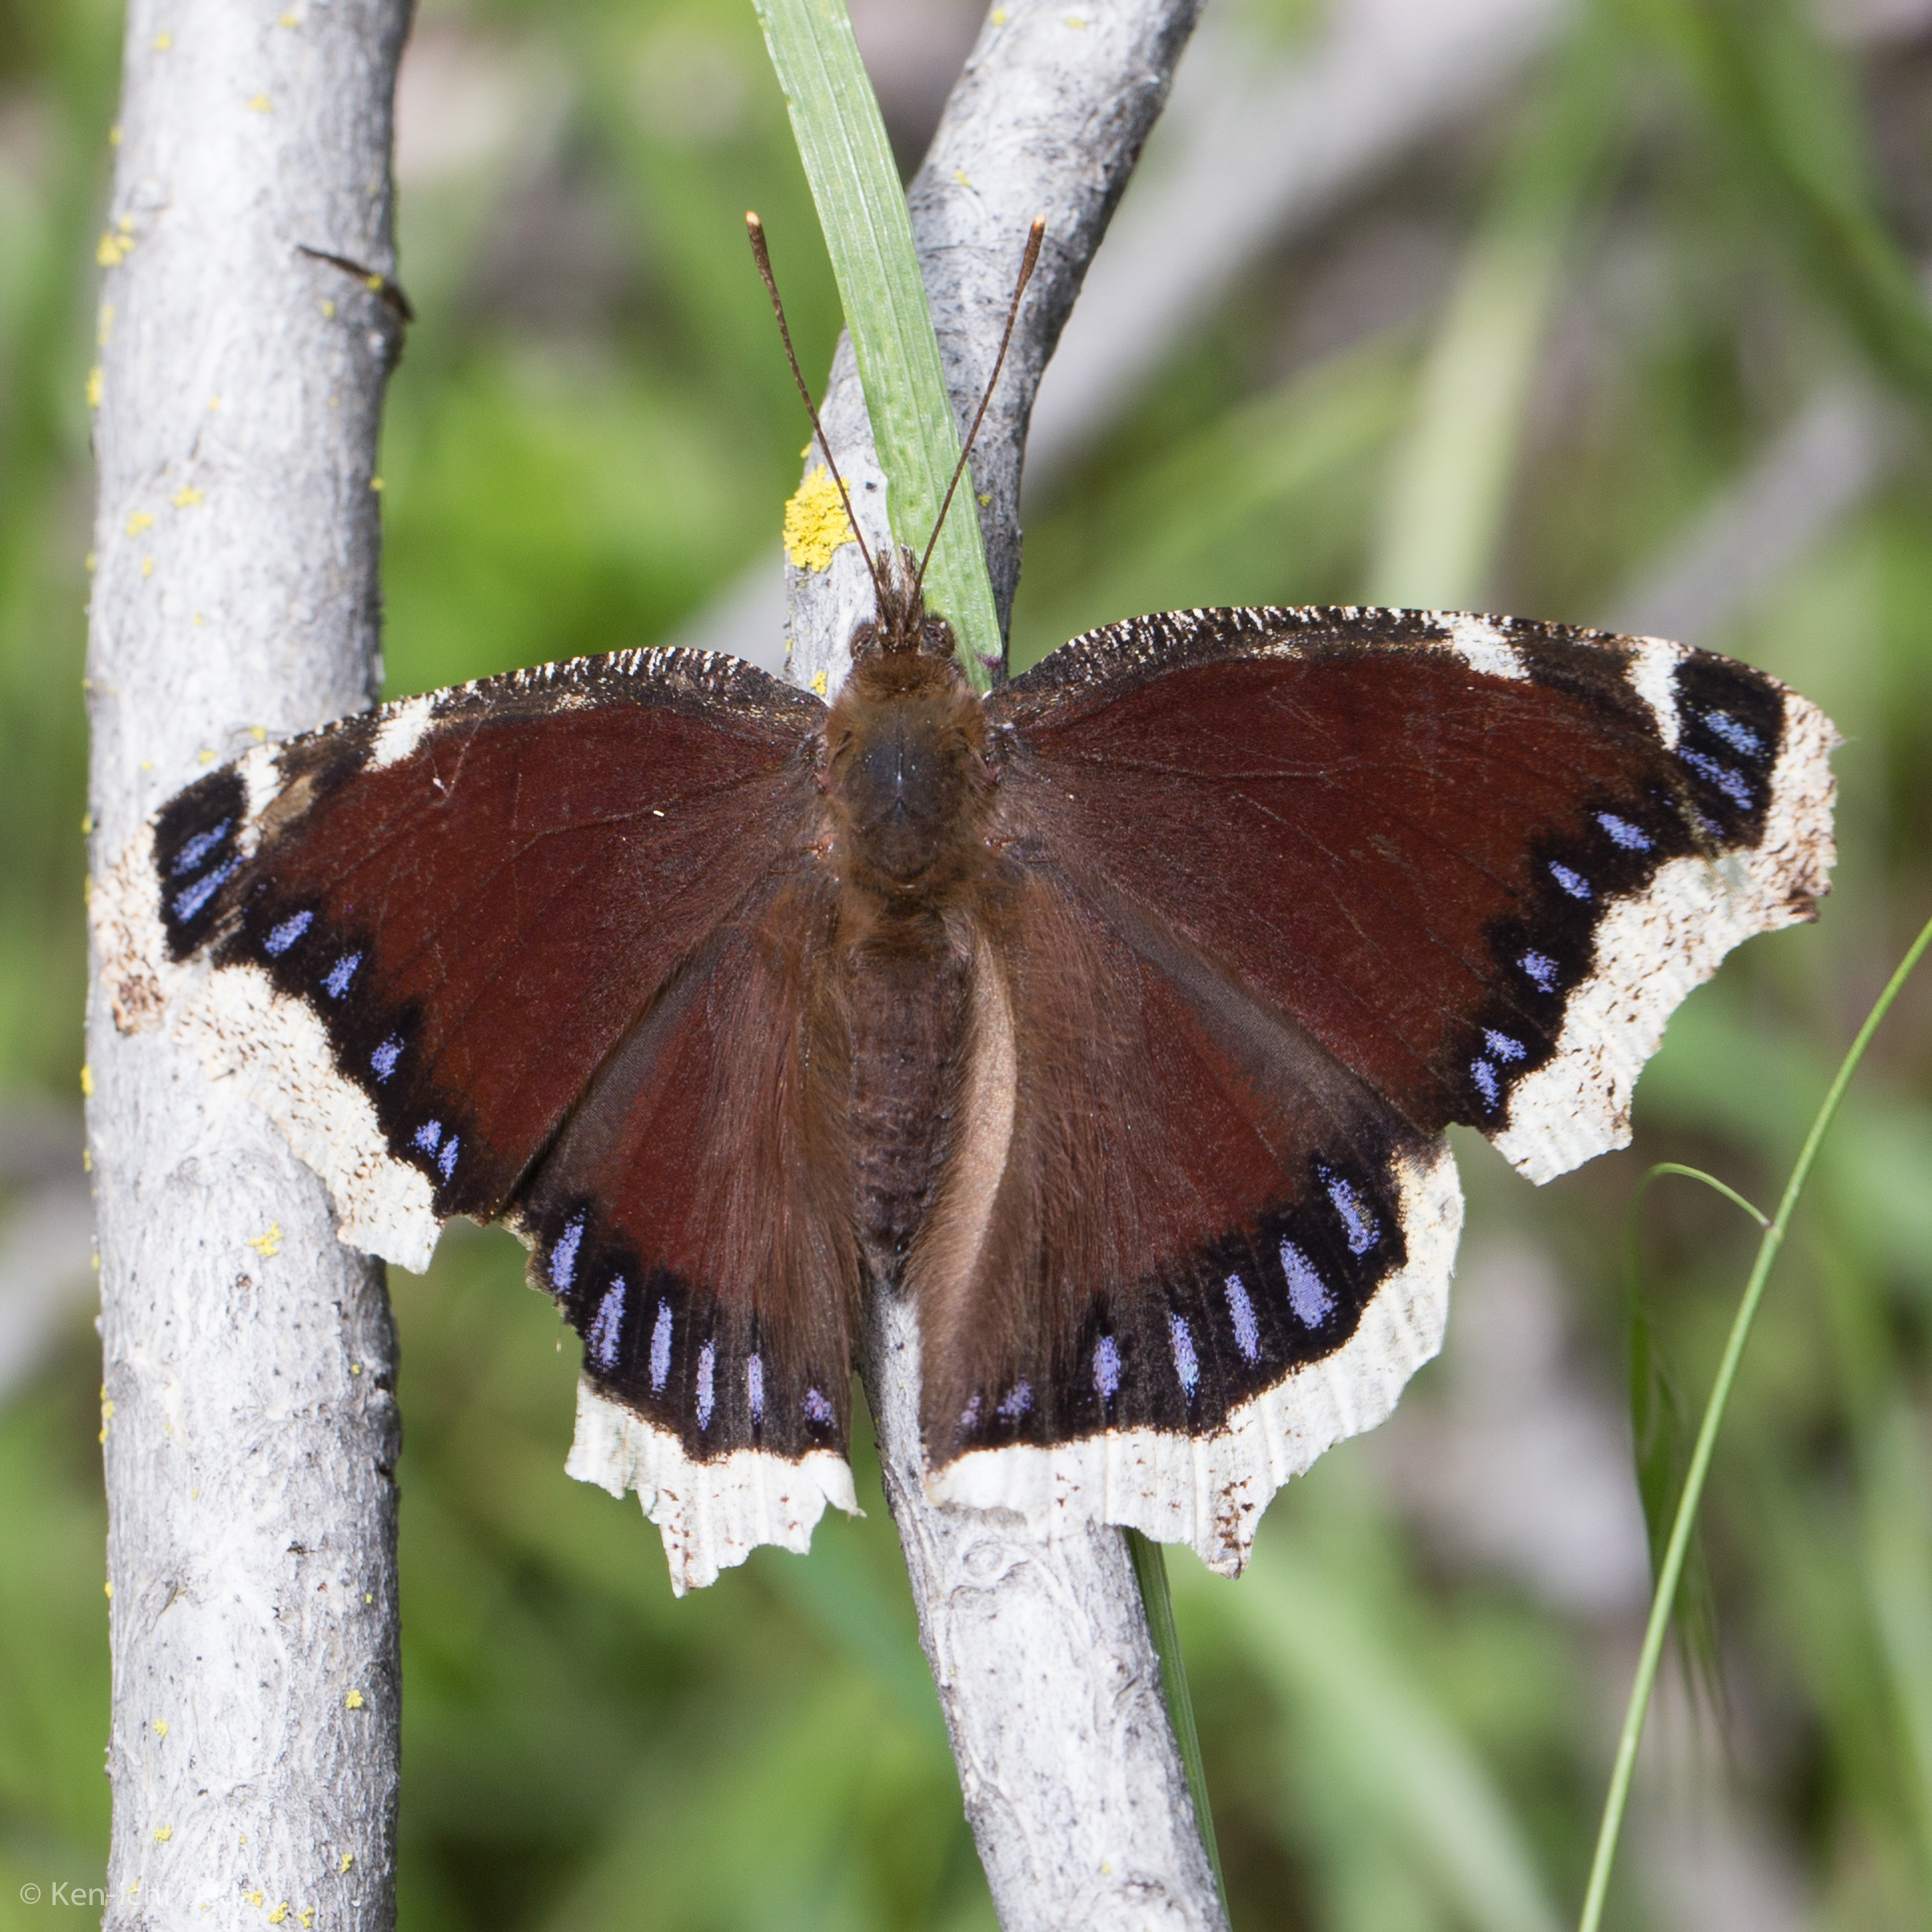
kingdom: Animalia
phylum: Arthropoda
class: Insecta
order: Lepidoptera
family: Nymphalidae
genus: Nymphalis
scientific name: Nymphalis antiopa
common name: Camberwell beauty
